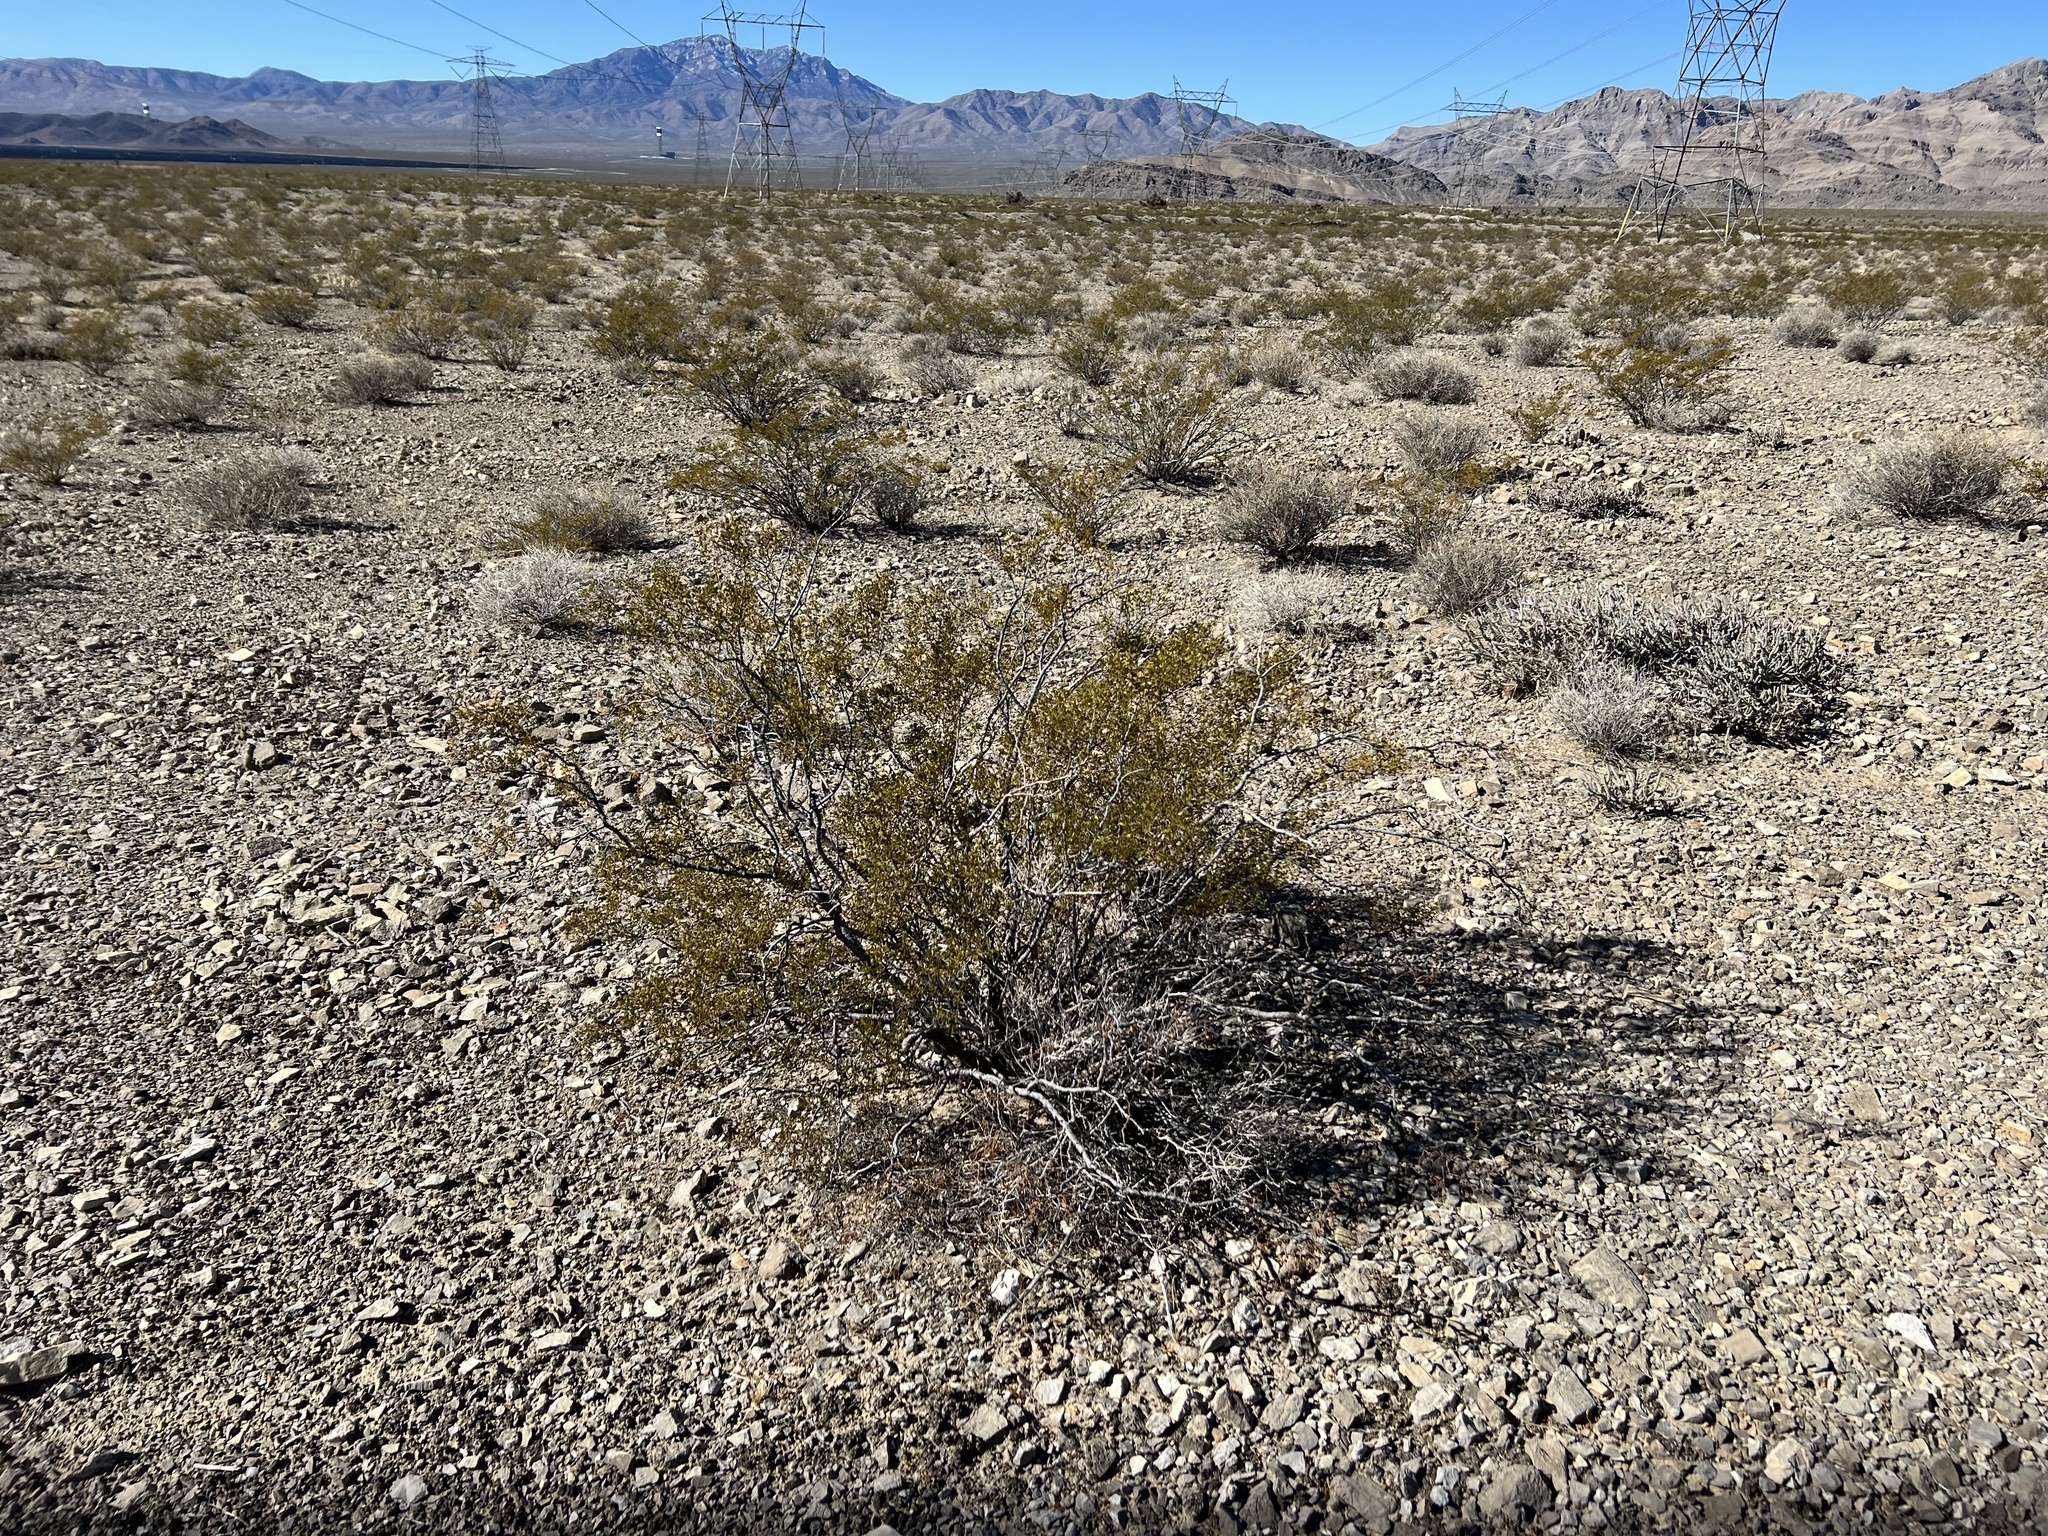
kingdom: Plantae
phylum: Tracheophyta
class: Magnoliopsida
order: Zygophyllales
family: Zygophyllaceae
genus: Larrea
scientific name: Larrea tridentata
